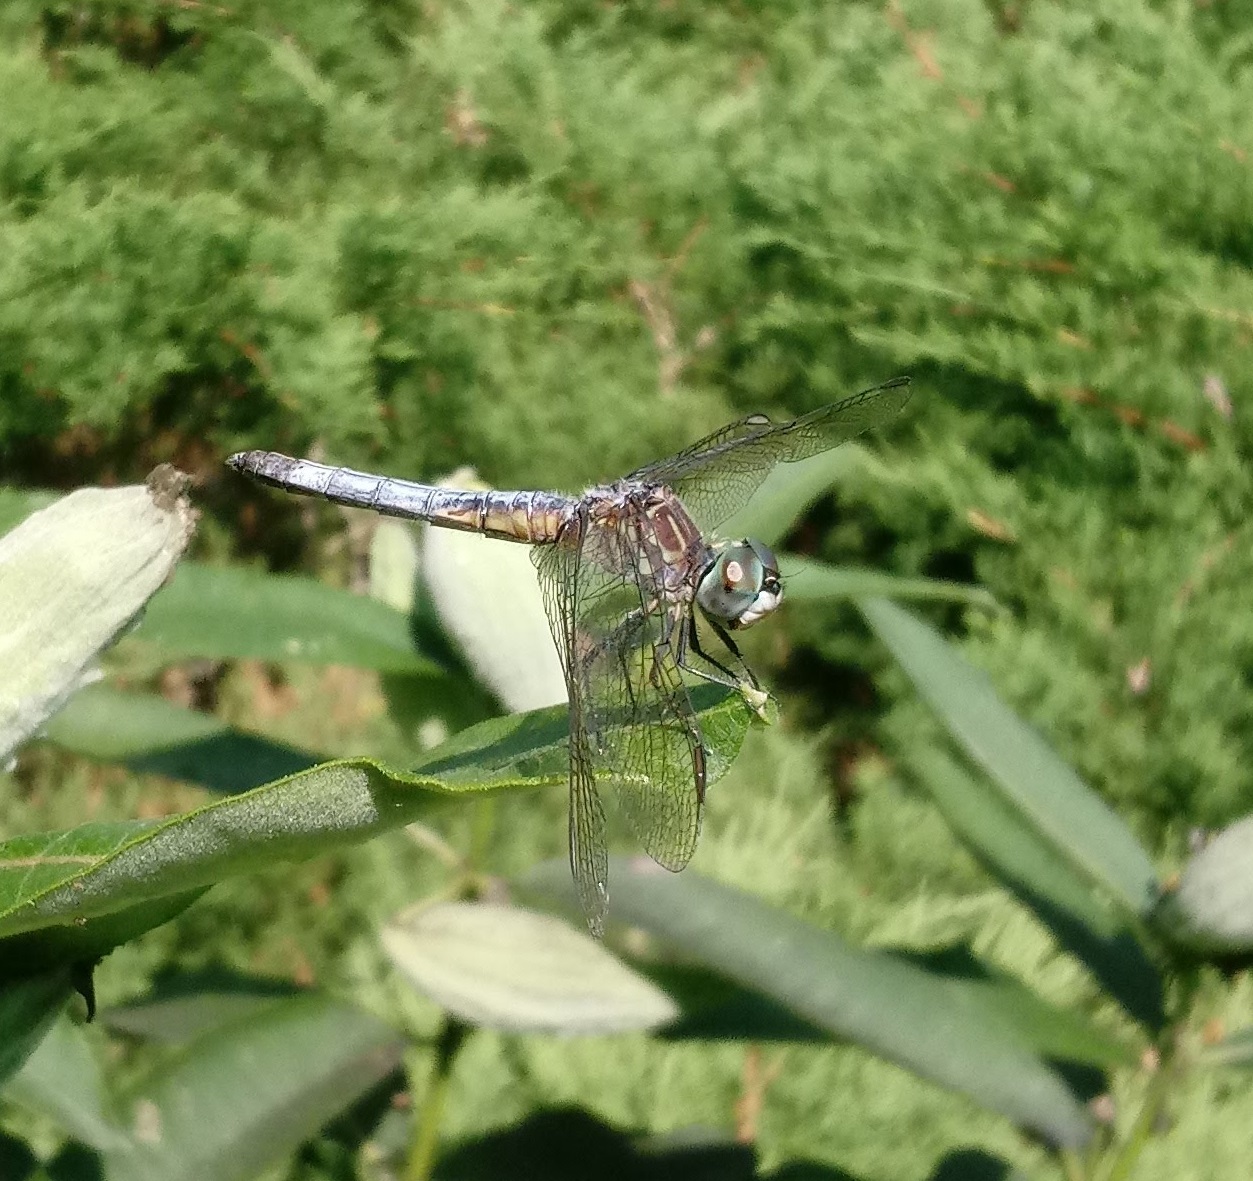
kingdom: Animalia
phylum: Arthropoda
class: Insecta
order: Odonata
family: Libellulidae
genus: Pachydiplax
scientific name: Pachydiplax longipennis
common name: Blue dasher
